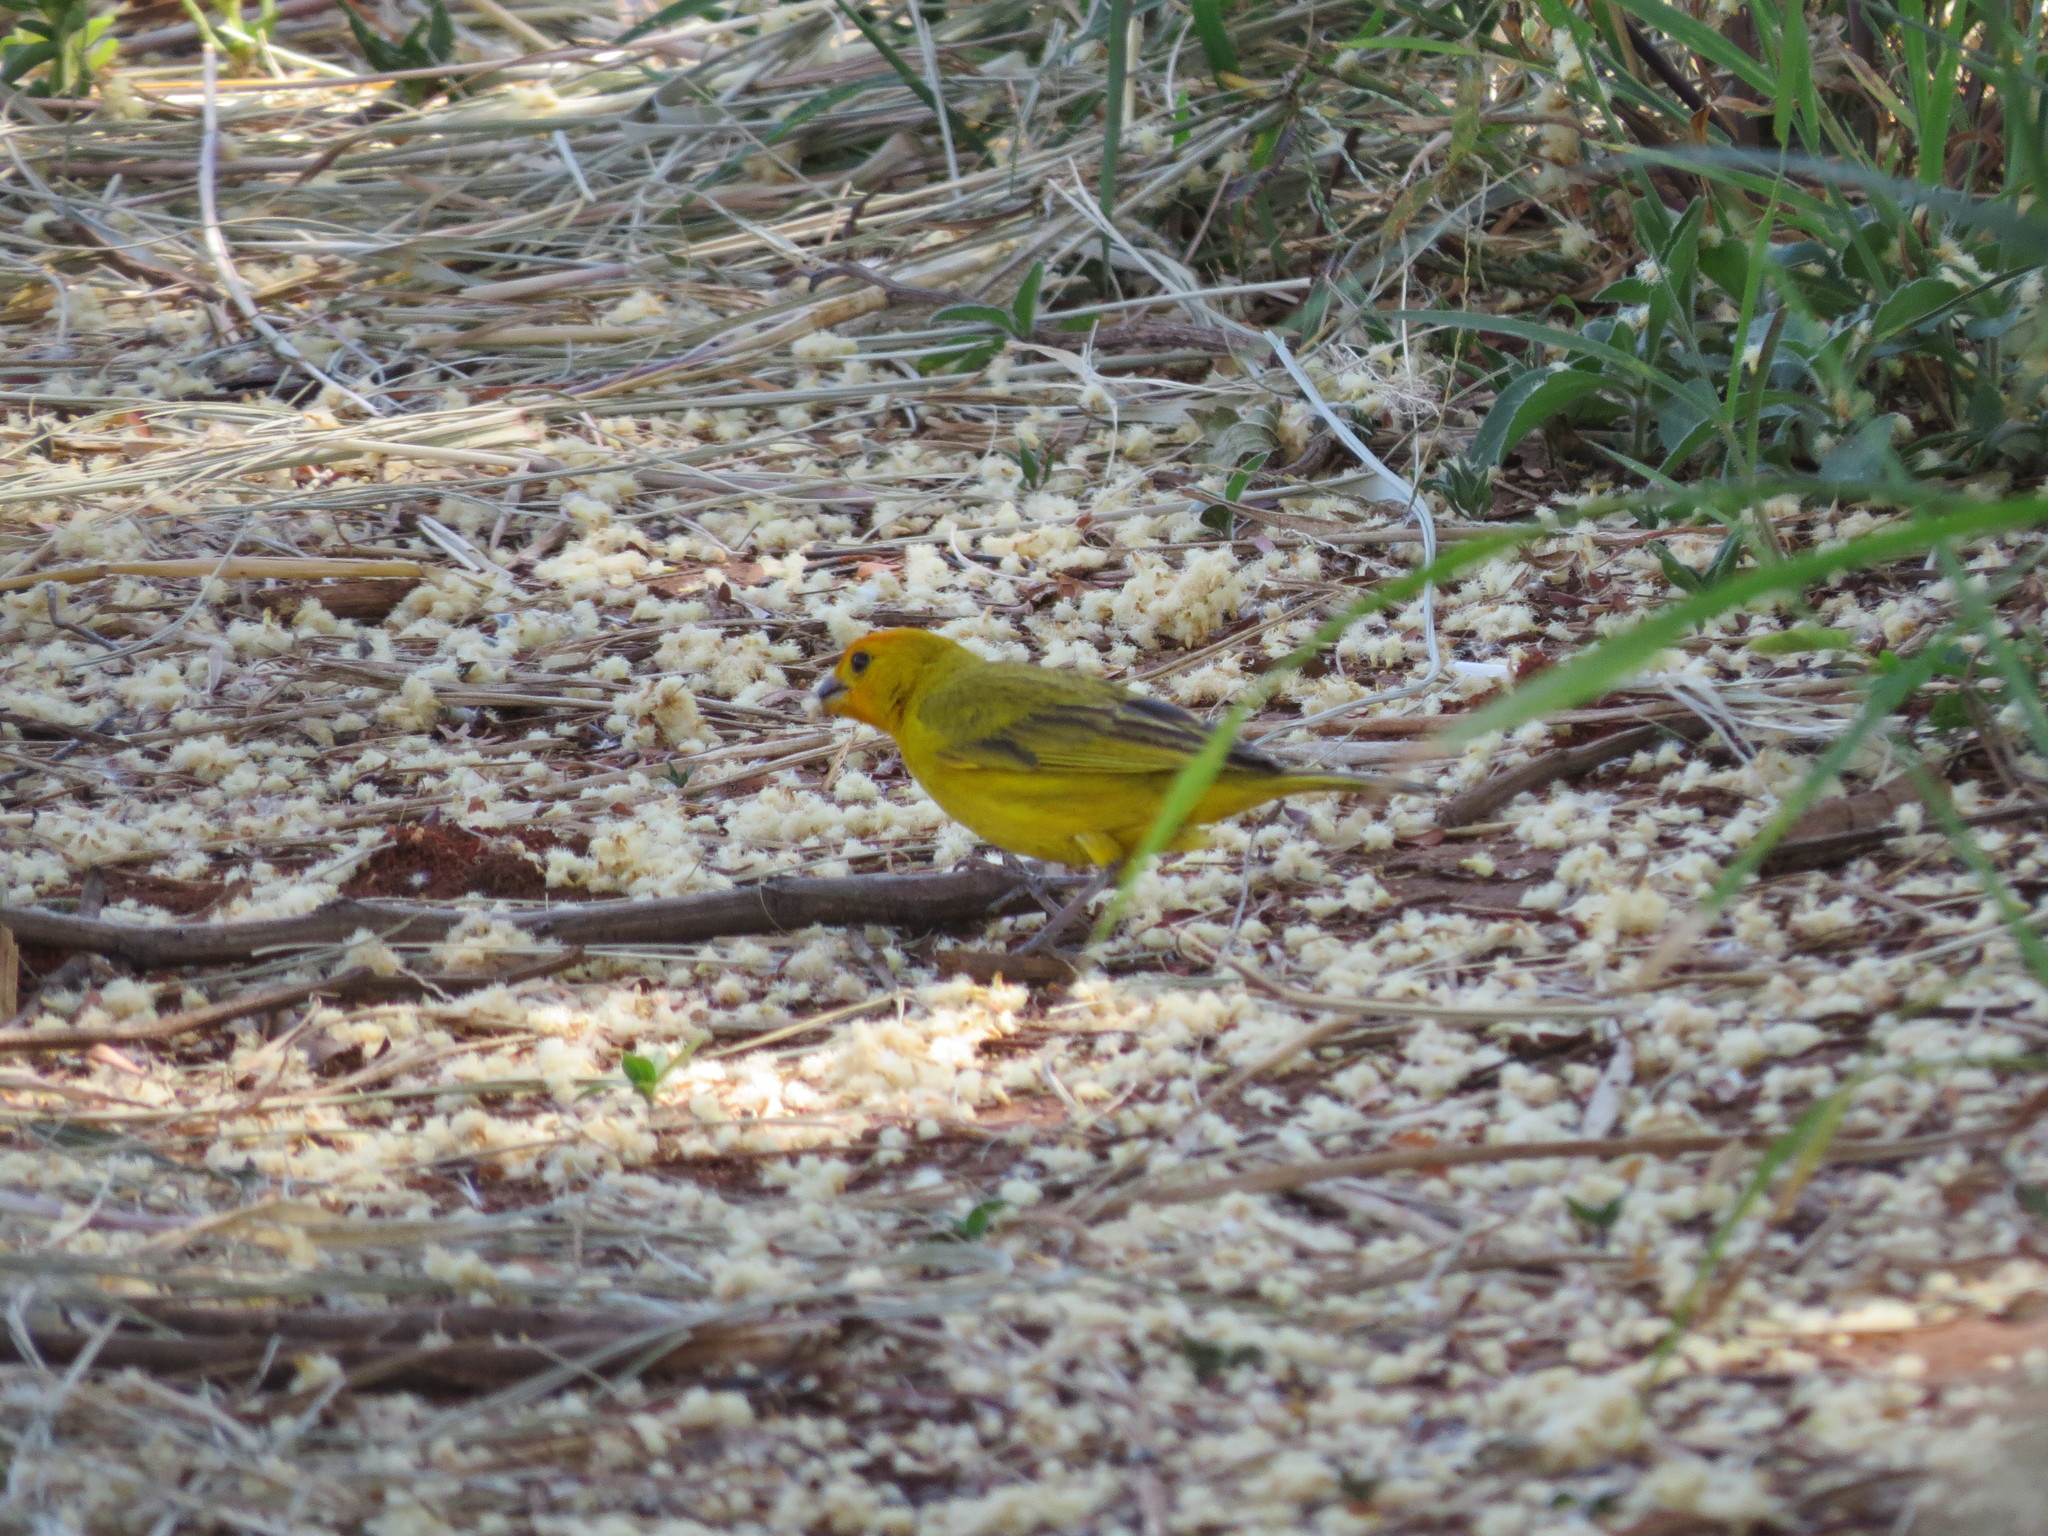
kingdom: Animalia
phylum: Chordata
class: Aves
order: Passeriformes
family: Thraupidae
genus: Sicalis
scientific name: Sicalis flaveola
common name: Saffron finch
